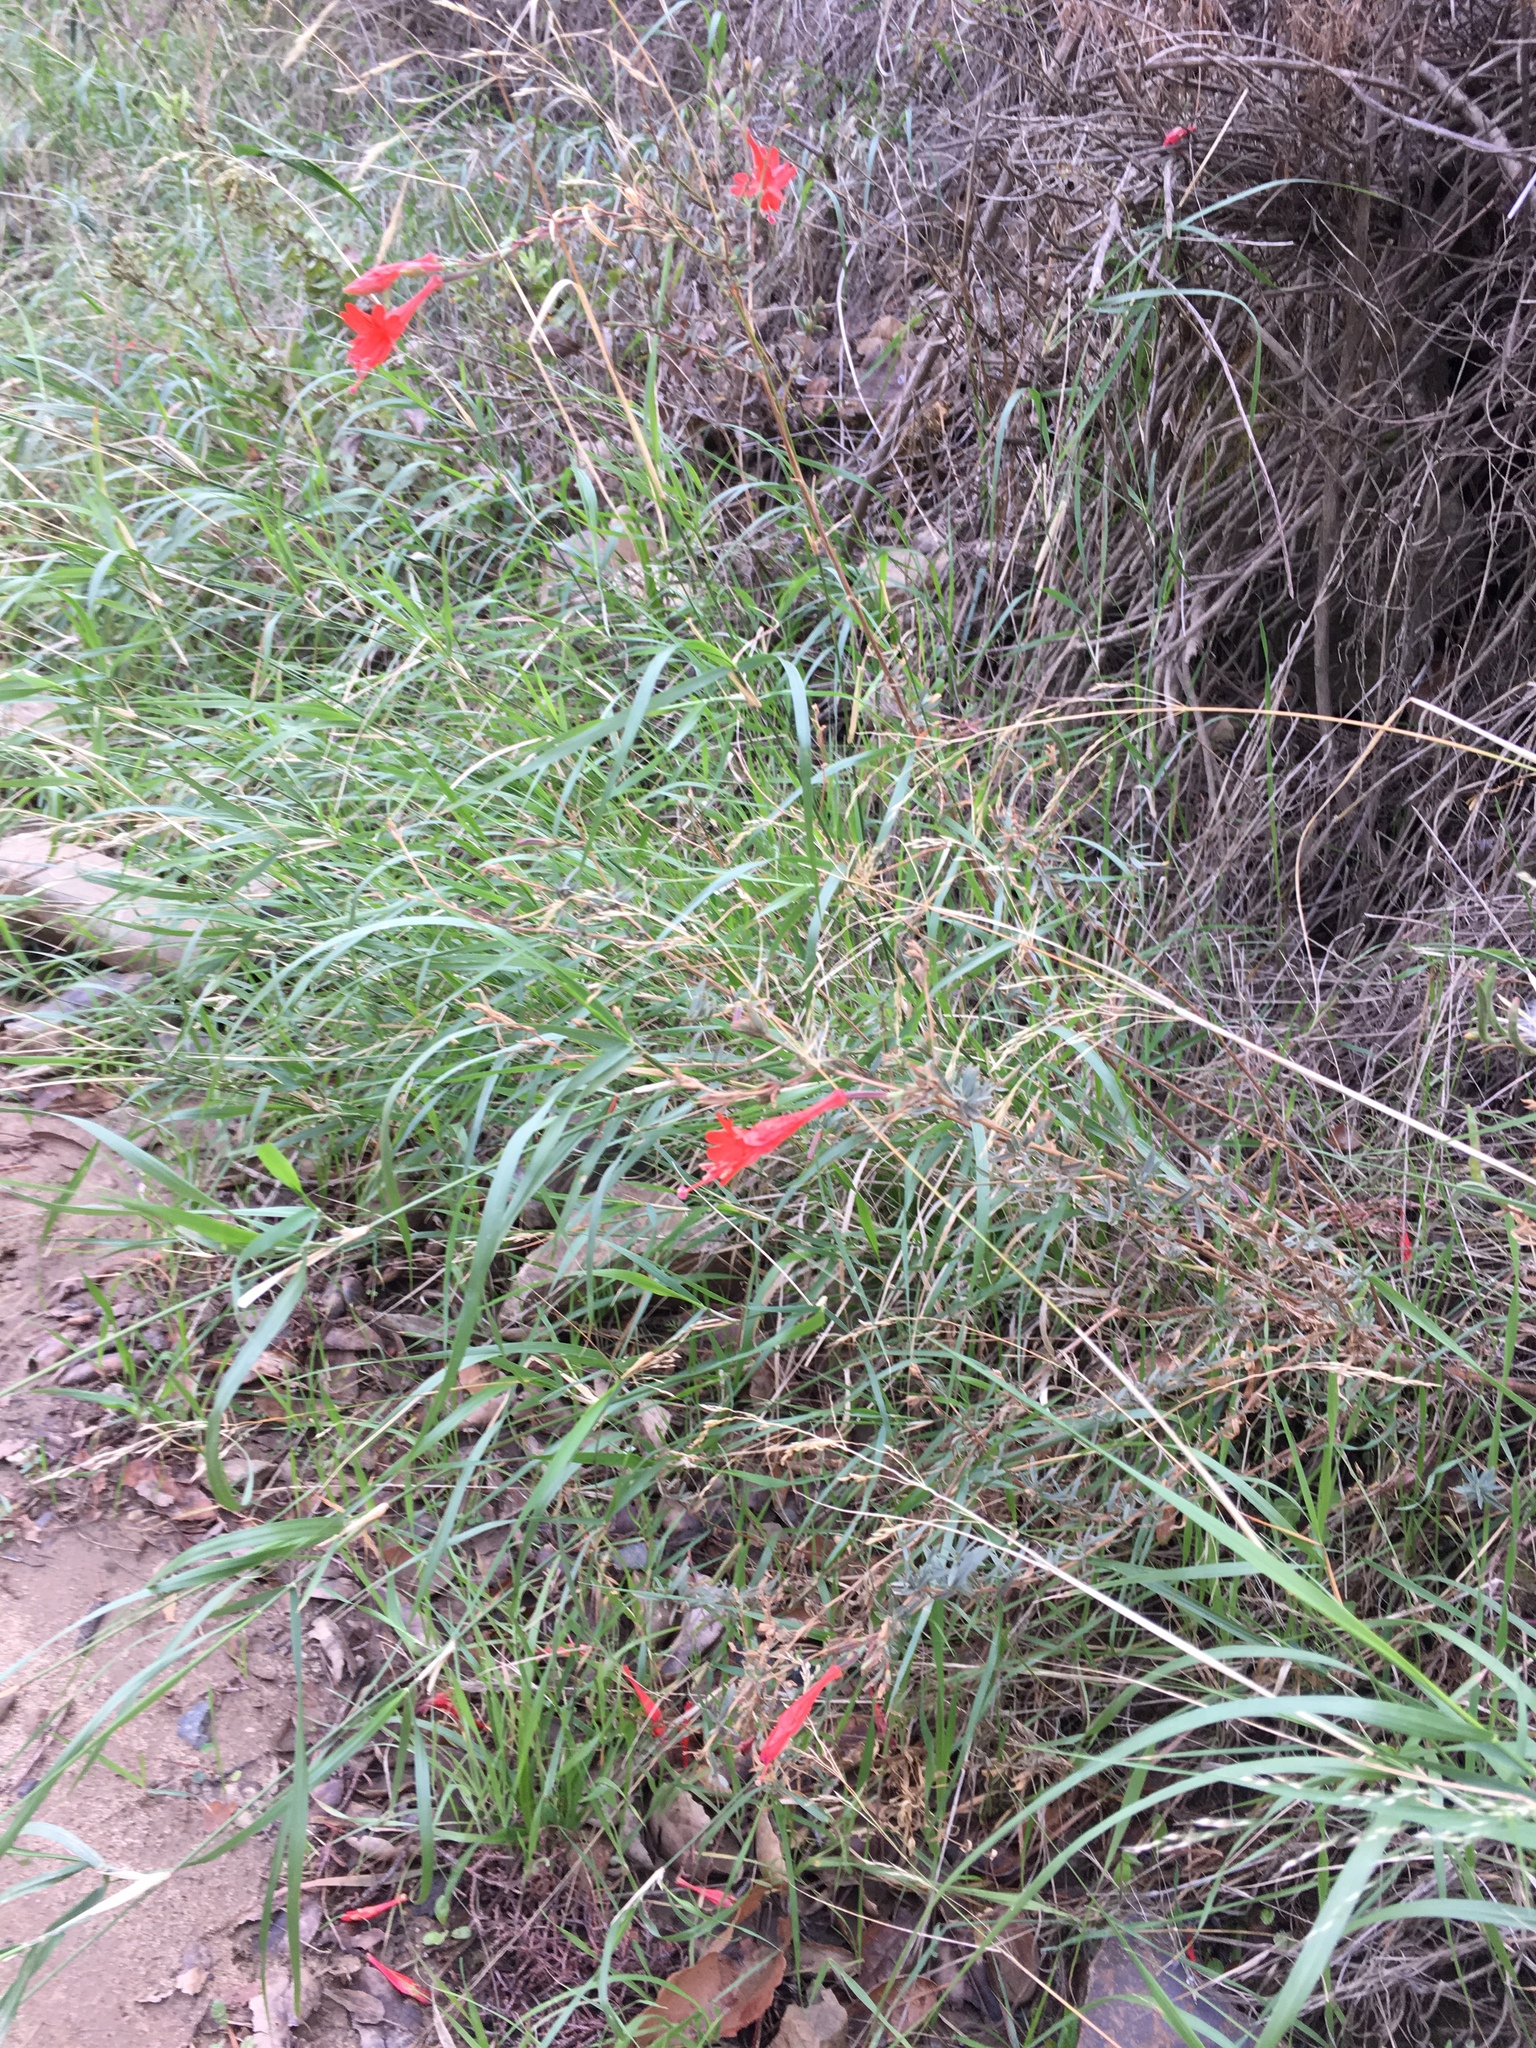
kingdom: Plantae
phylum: Tracheophyta
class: Magnoliopsida
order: Myrtales
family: Onagraceae
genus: Epilobium
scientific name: Epilobium canum
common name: California-fuchsia
